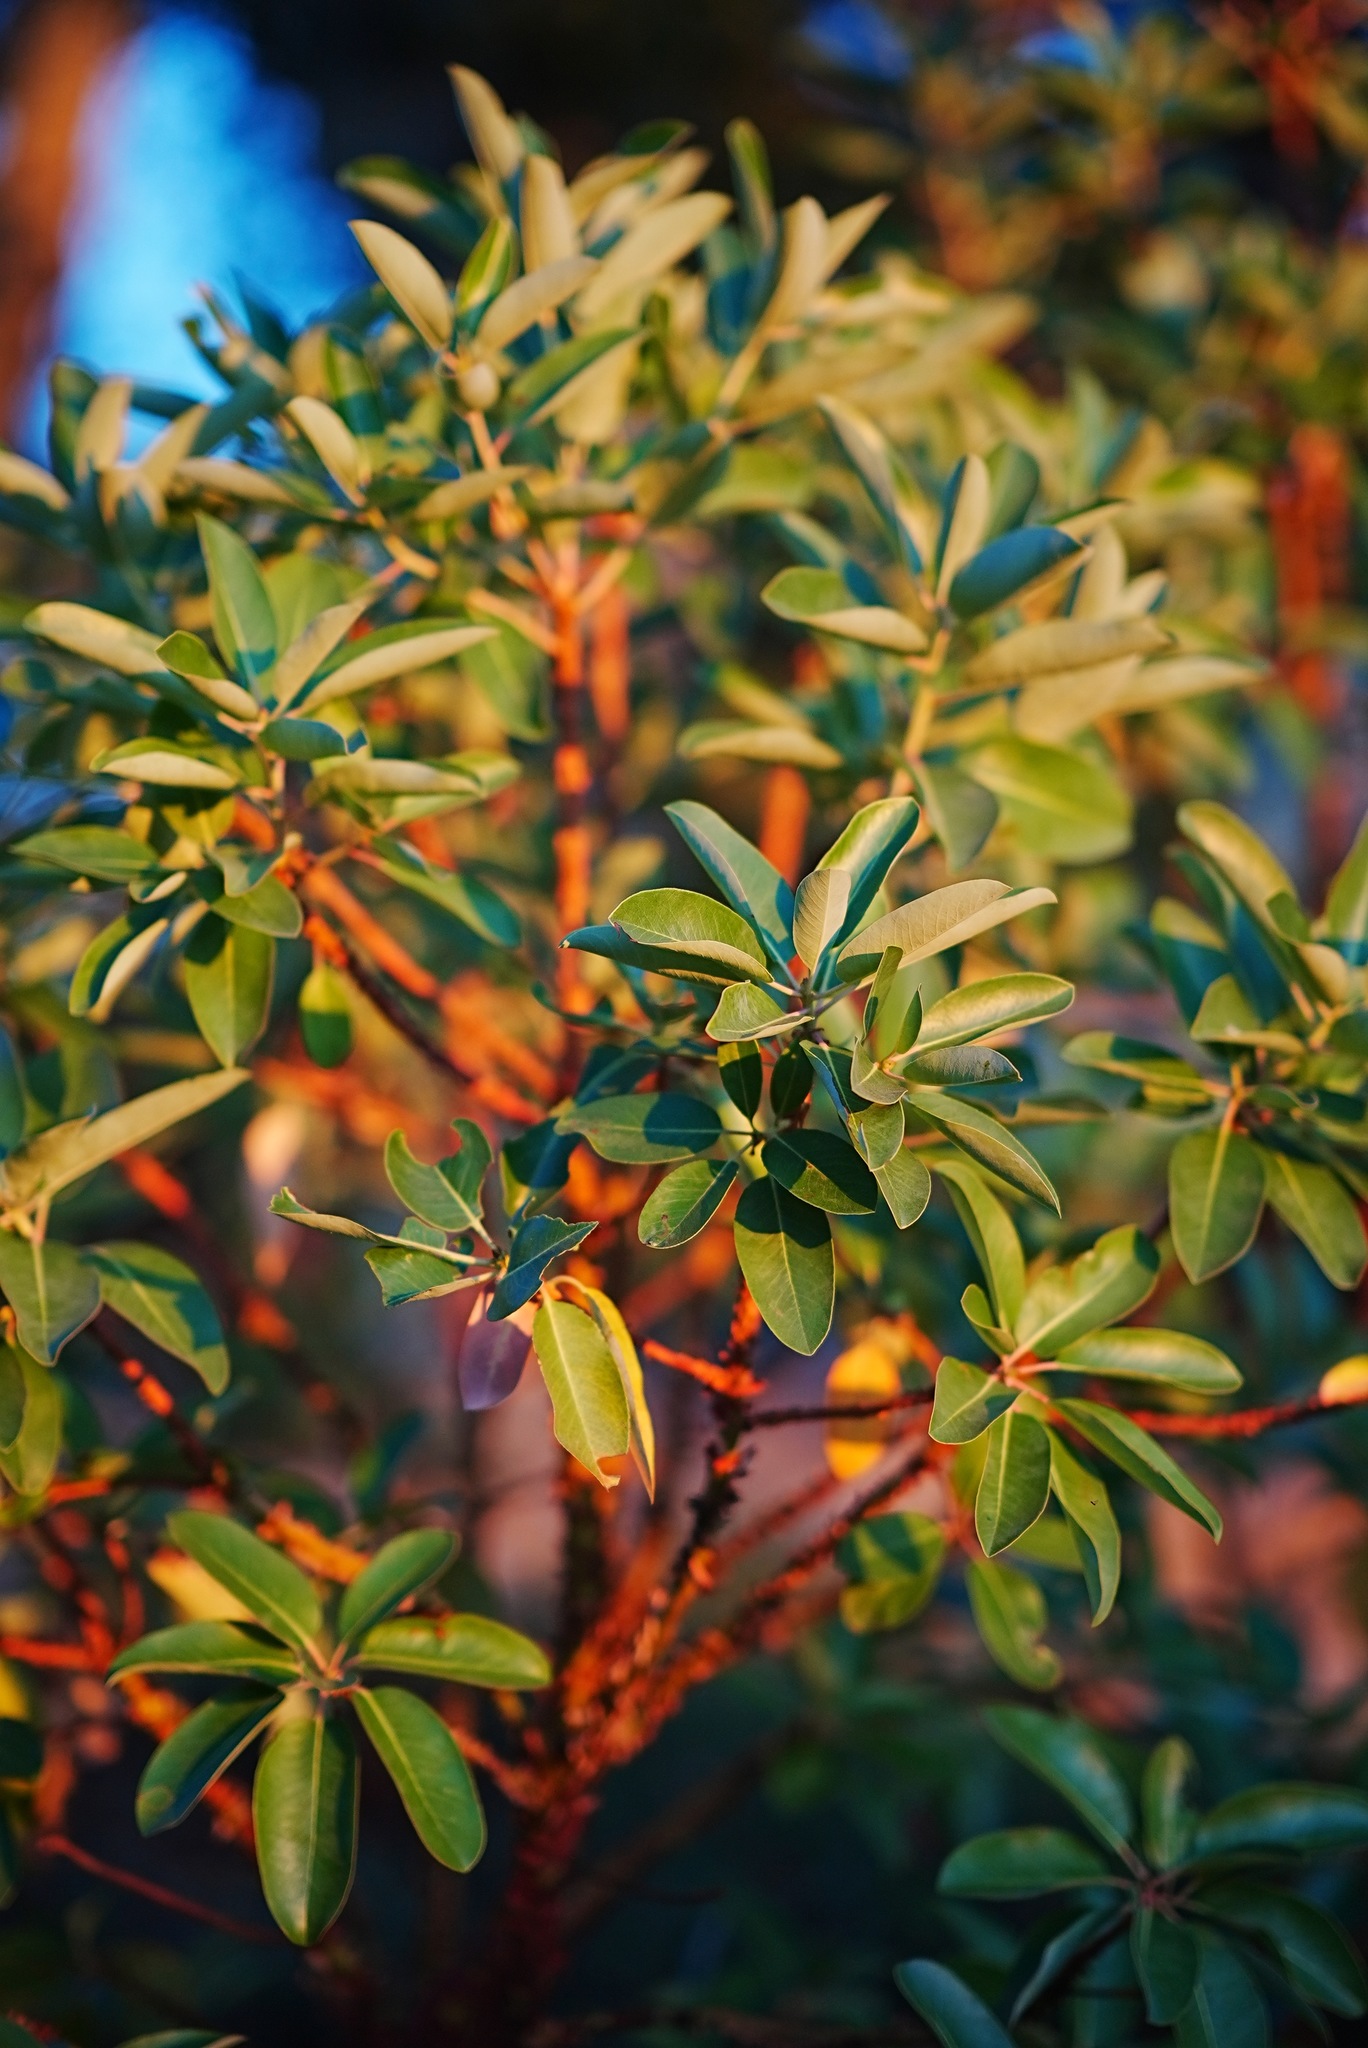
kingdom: Plantae
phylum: Tracheophyta
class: Magnoliopsida
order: Ericales
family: Ericaceae
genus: Arbutus
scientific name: Arbutus menziesii
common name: Pacific madrone
